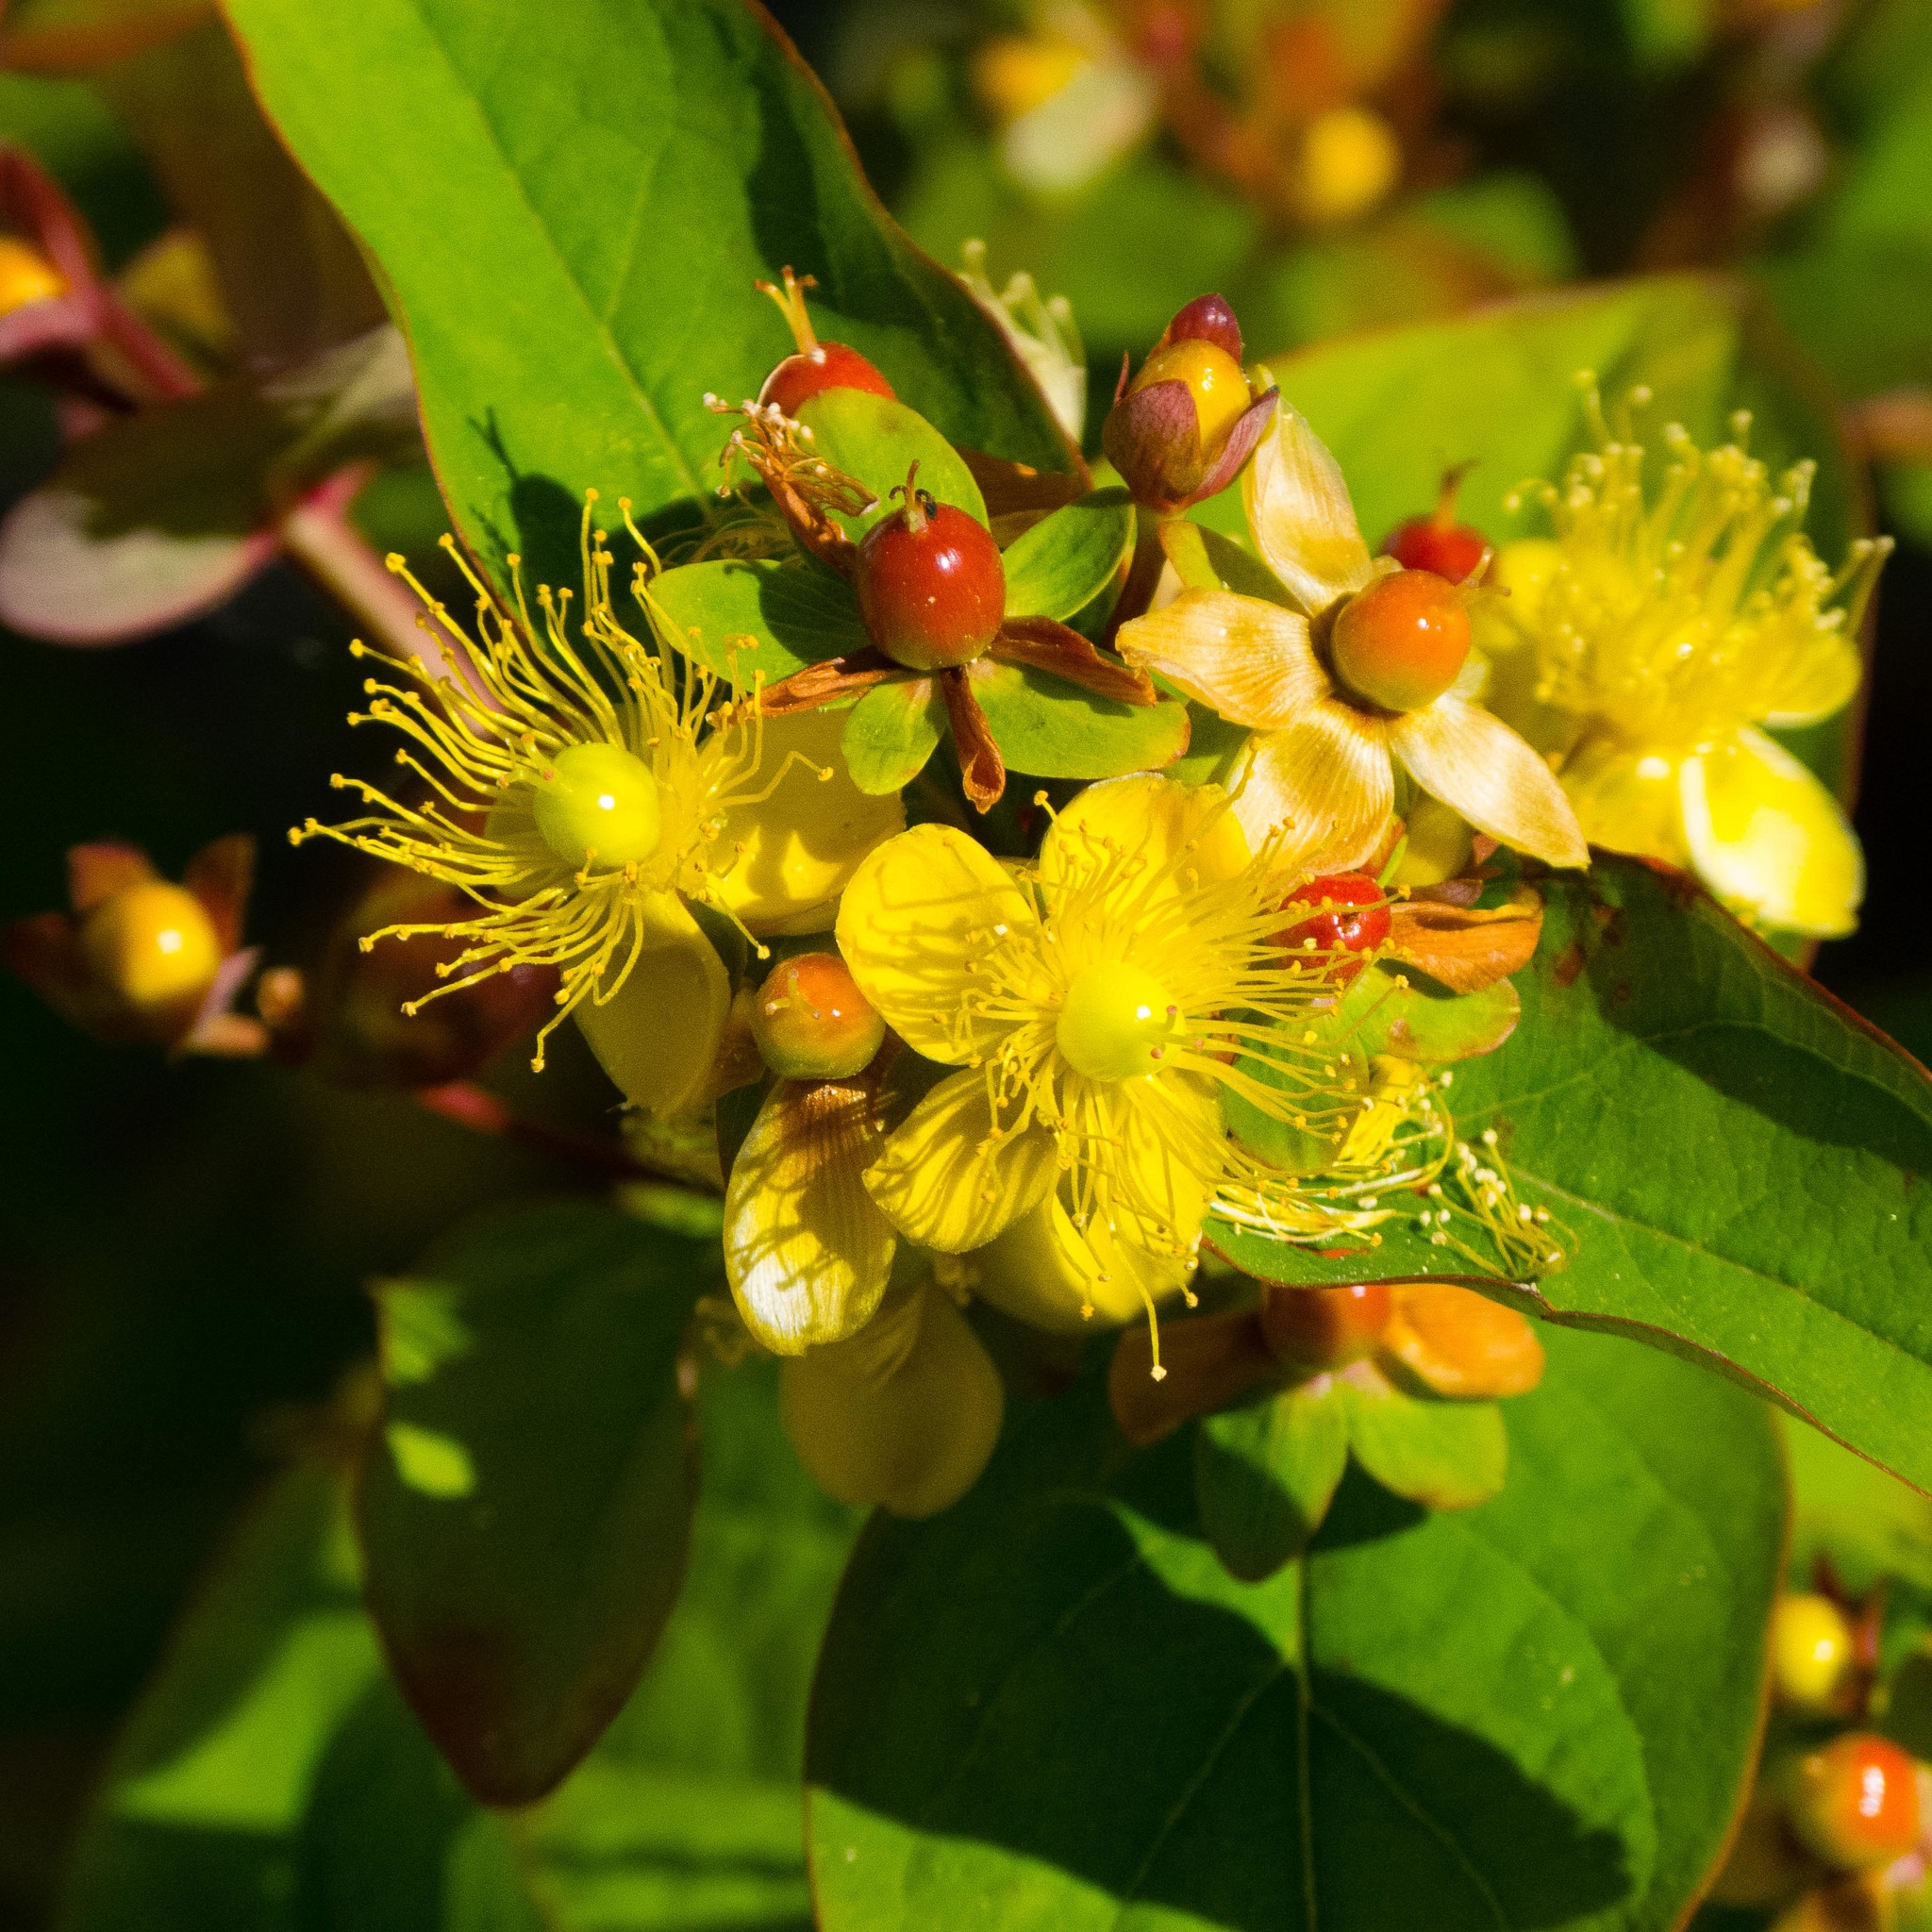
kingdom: Plantae
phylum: Tracheophyta
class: Magnoliopsida
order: Malpighiales
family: Hypericaceae
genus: Hypericum
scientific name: Hypericum androsaemum
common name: Sweet-amber
